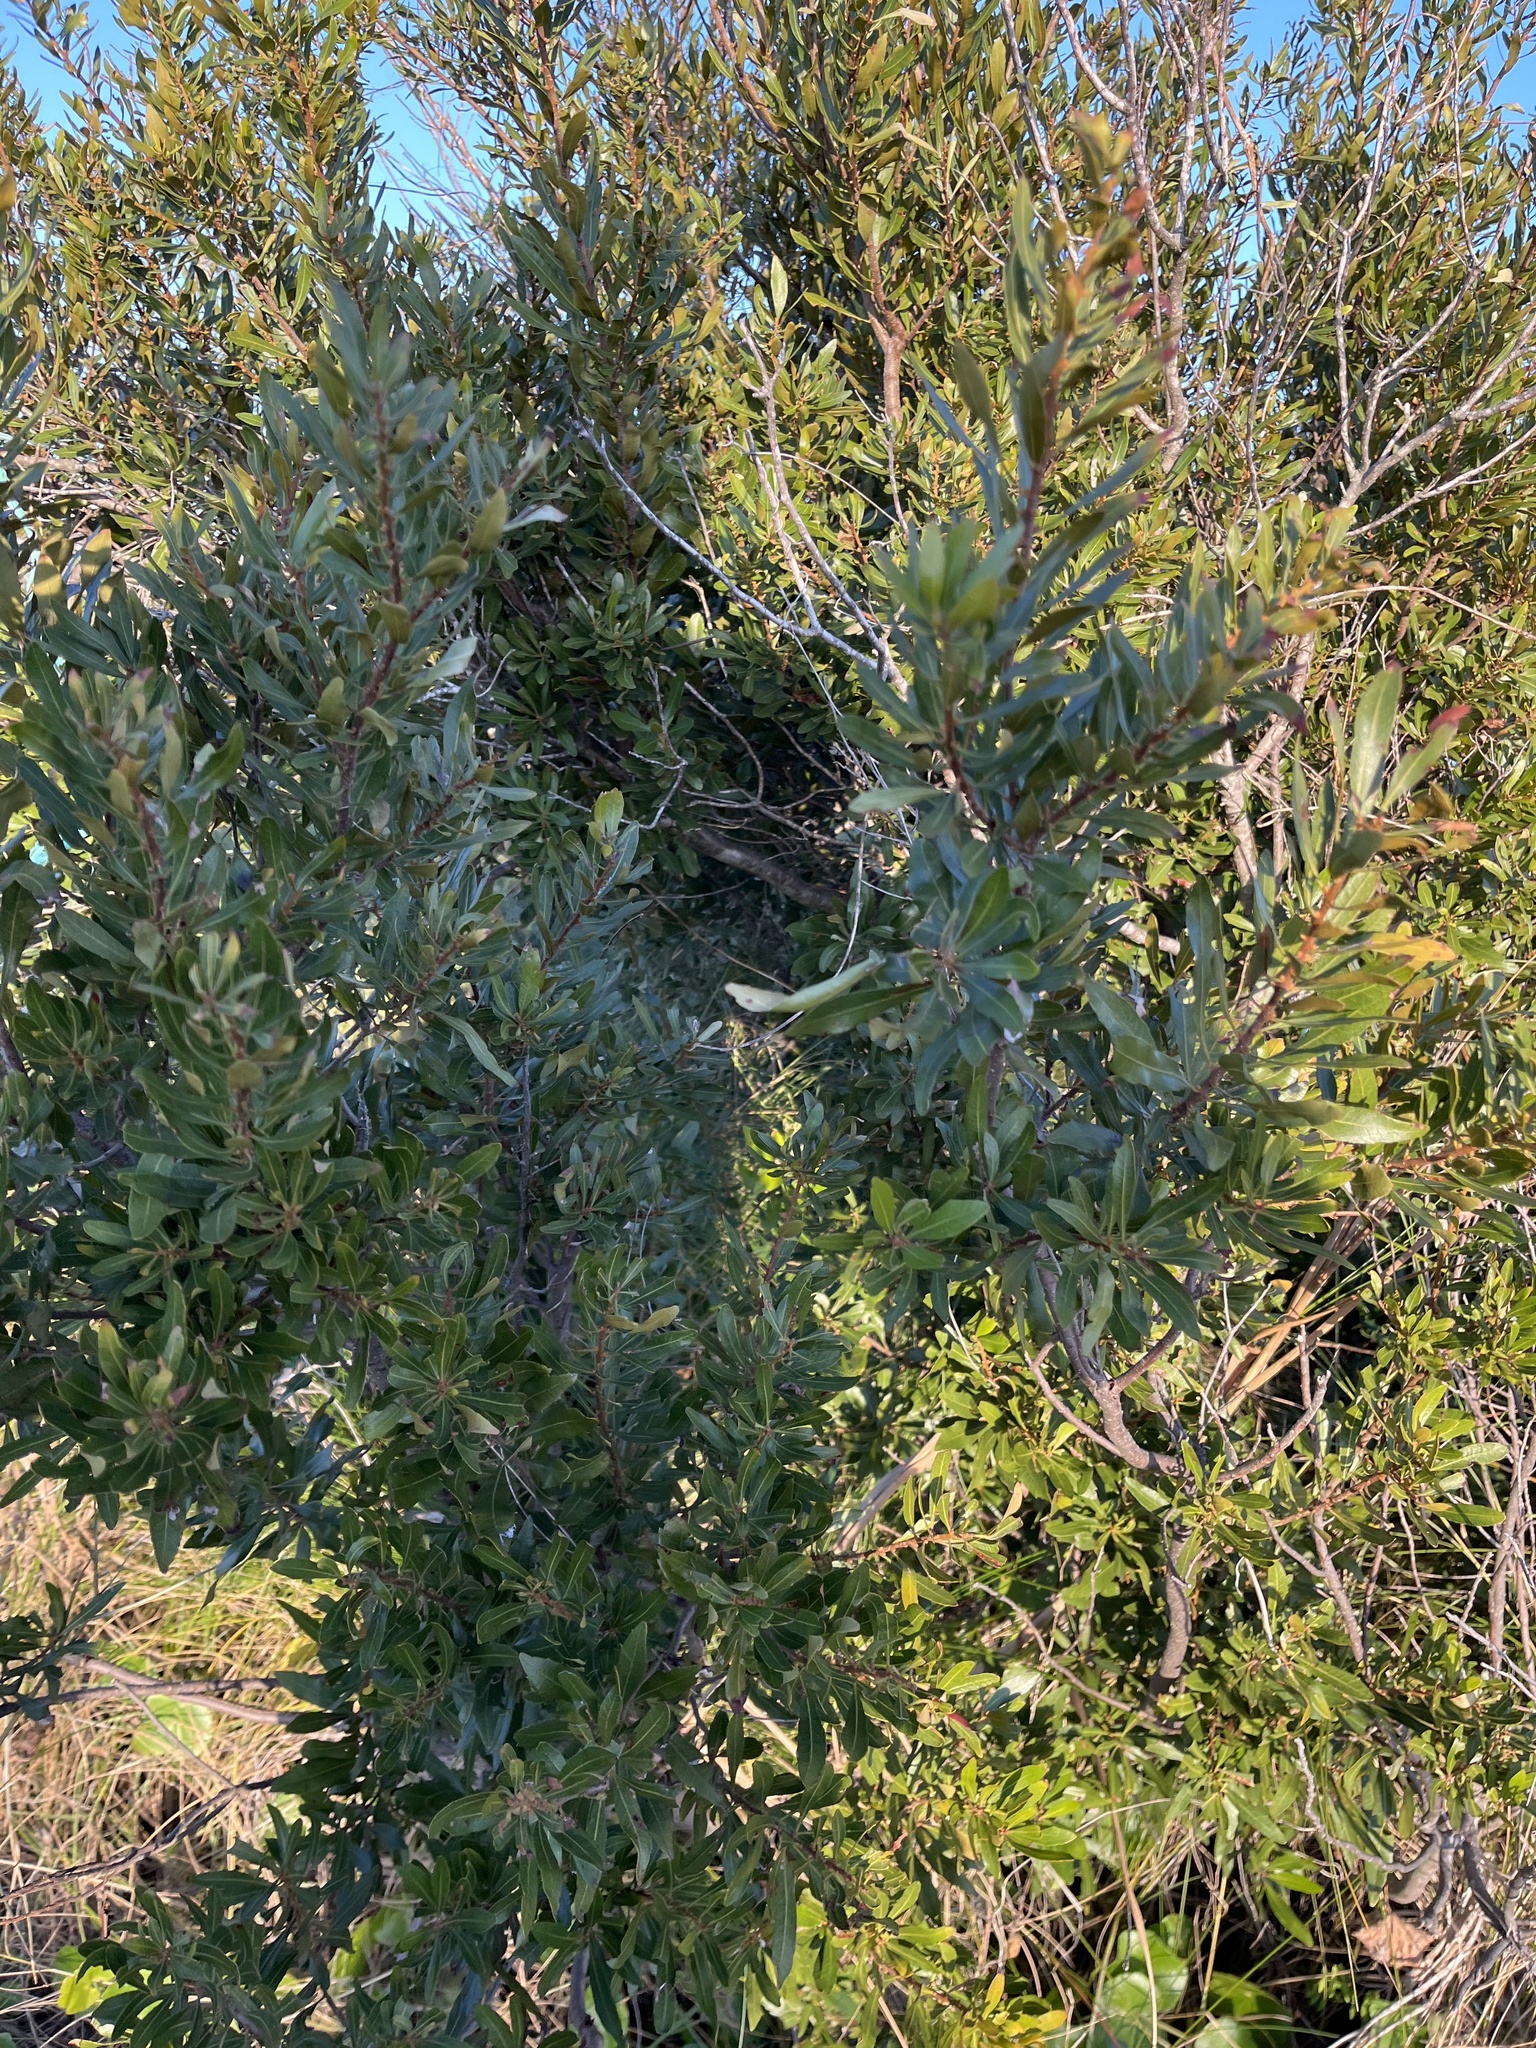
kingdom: Plantae
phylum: Tracheophyta
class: Magnoliopsida
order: Fagales
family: Myricaceae
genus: Morella
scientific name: Morella cerifera
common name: Wax myrtle
